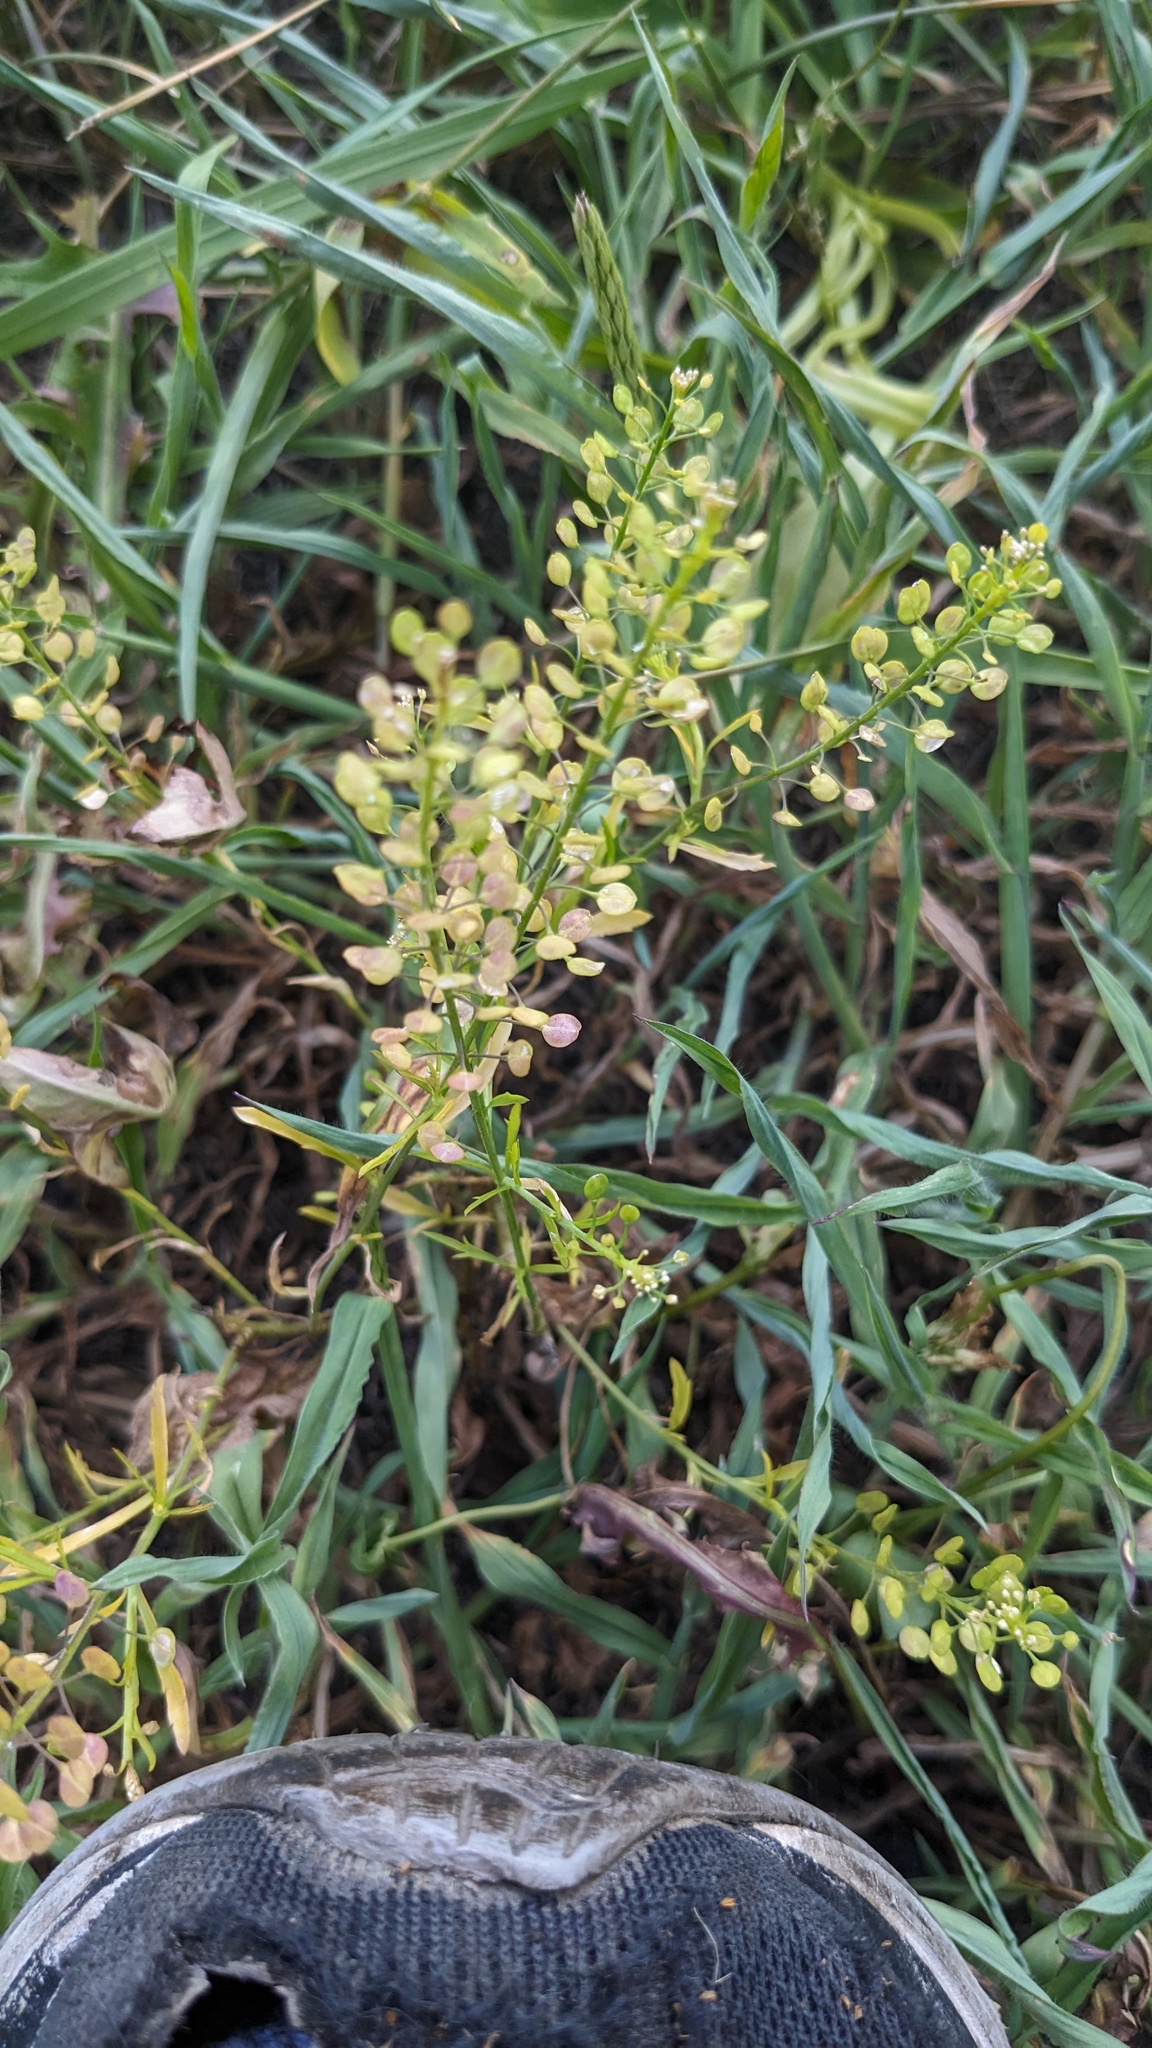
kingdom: Plantae
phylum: Tracheophyta
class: Magnoliopsida
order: Brassicales
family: Brassicaceae
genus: Lepidium
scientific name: Lepidium virginicum
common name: Least pepperwort
